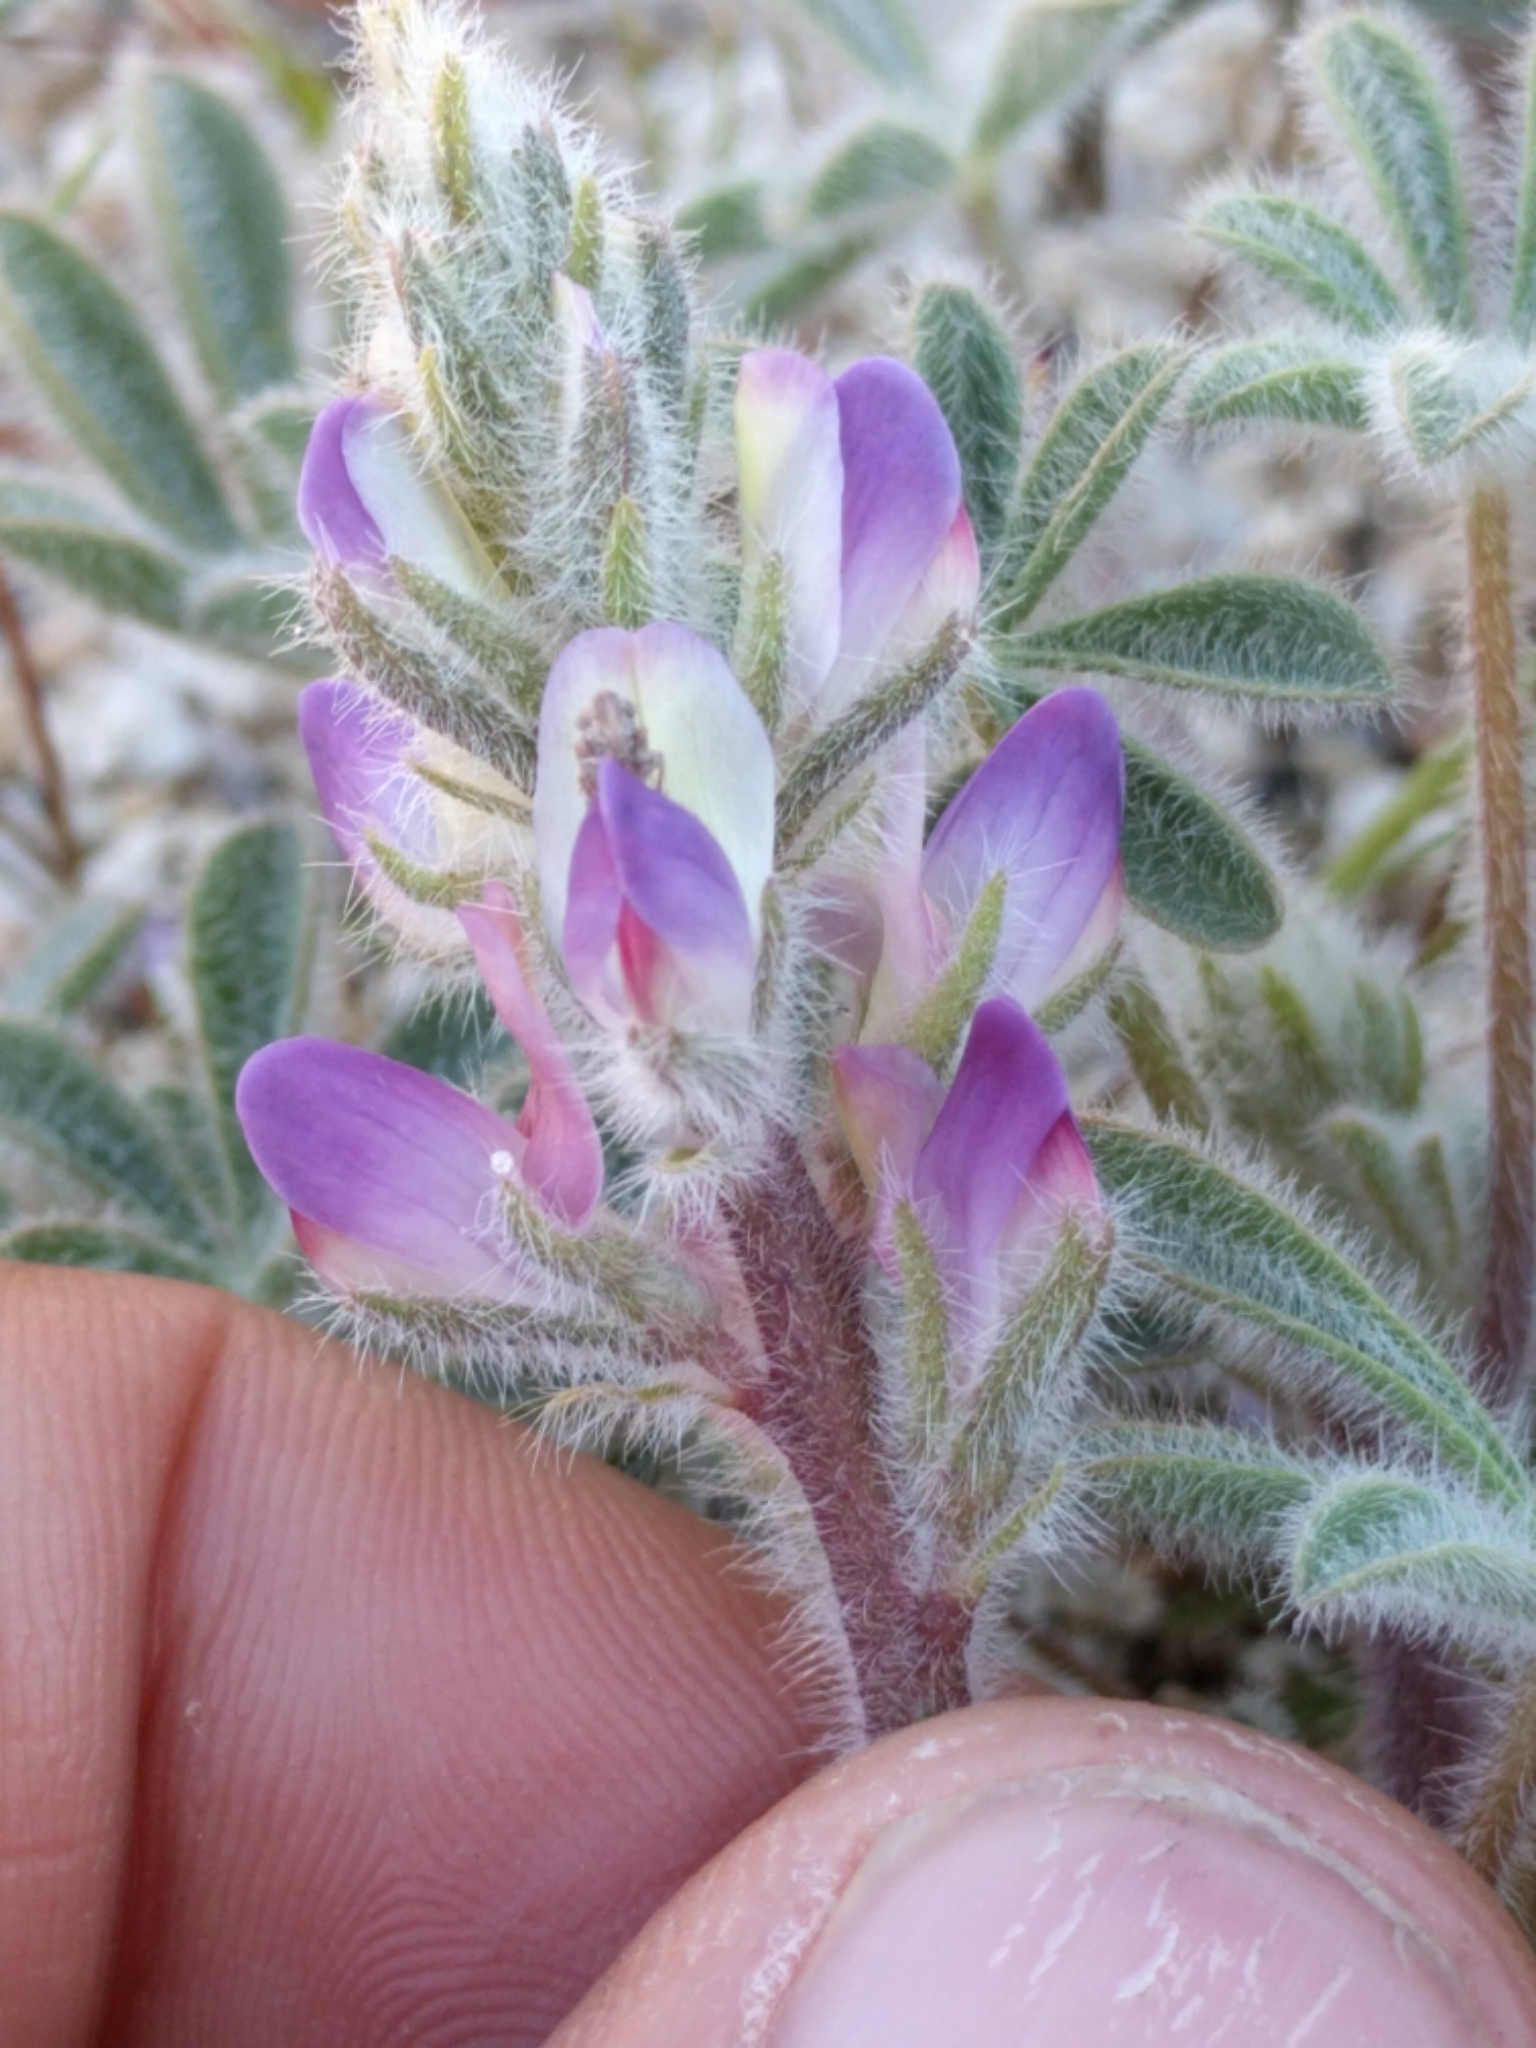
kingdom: Plantae
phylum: Tracheophyta
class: Magnoliopsida
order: Fabales
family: Fabaceae
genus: Lupinus
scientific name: Lupinus concinnus
